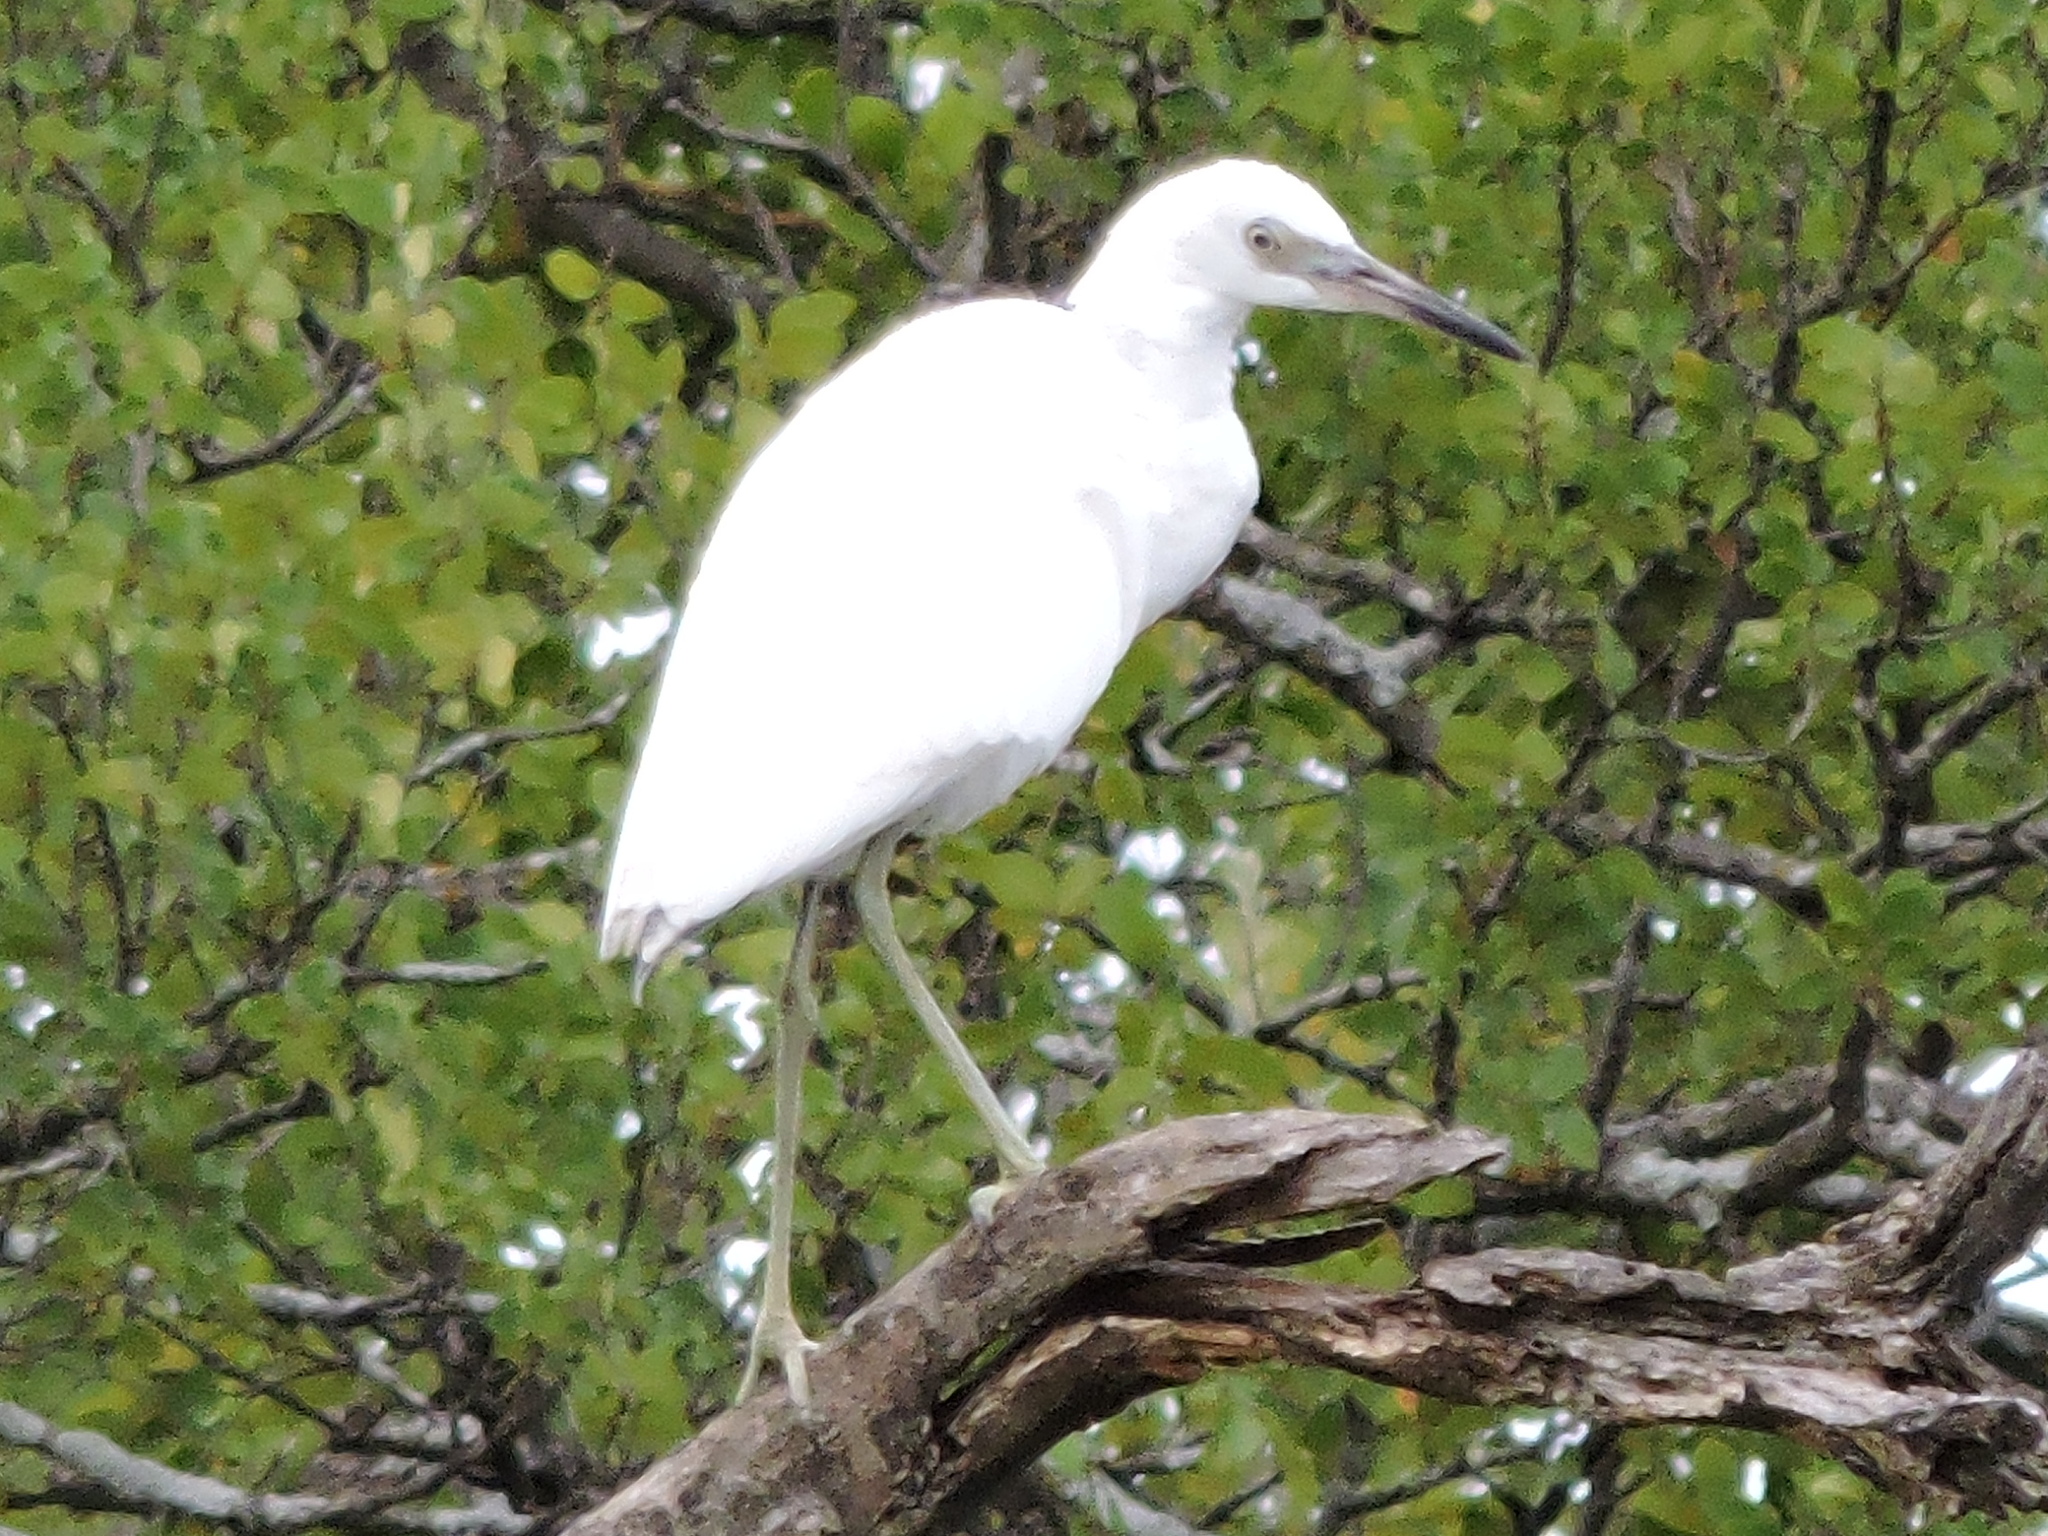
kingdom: Animalia
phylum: Chordata
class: Aves
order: Pelecaniformes
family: Ardeidae
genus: Egretta
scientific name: Egretta caerulea
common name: Little blue heron
